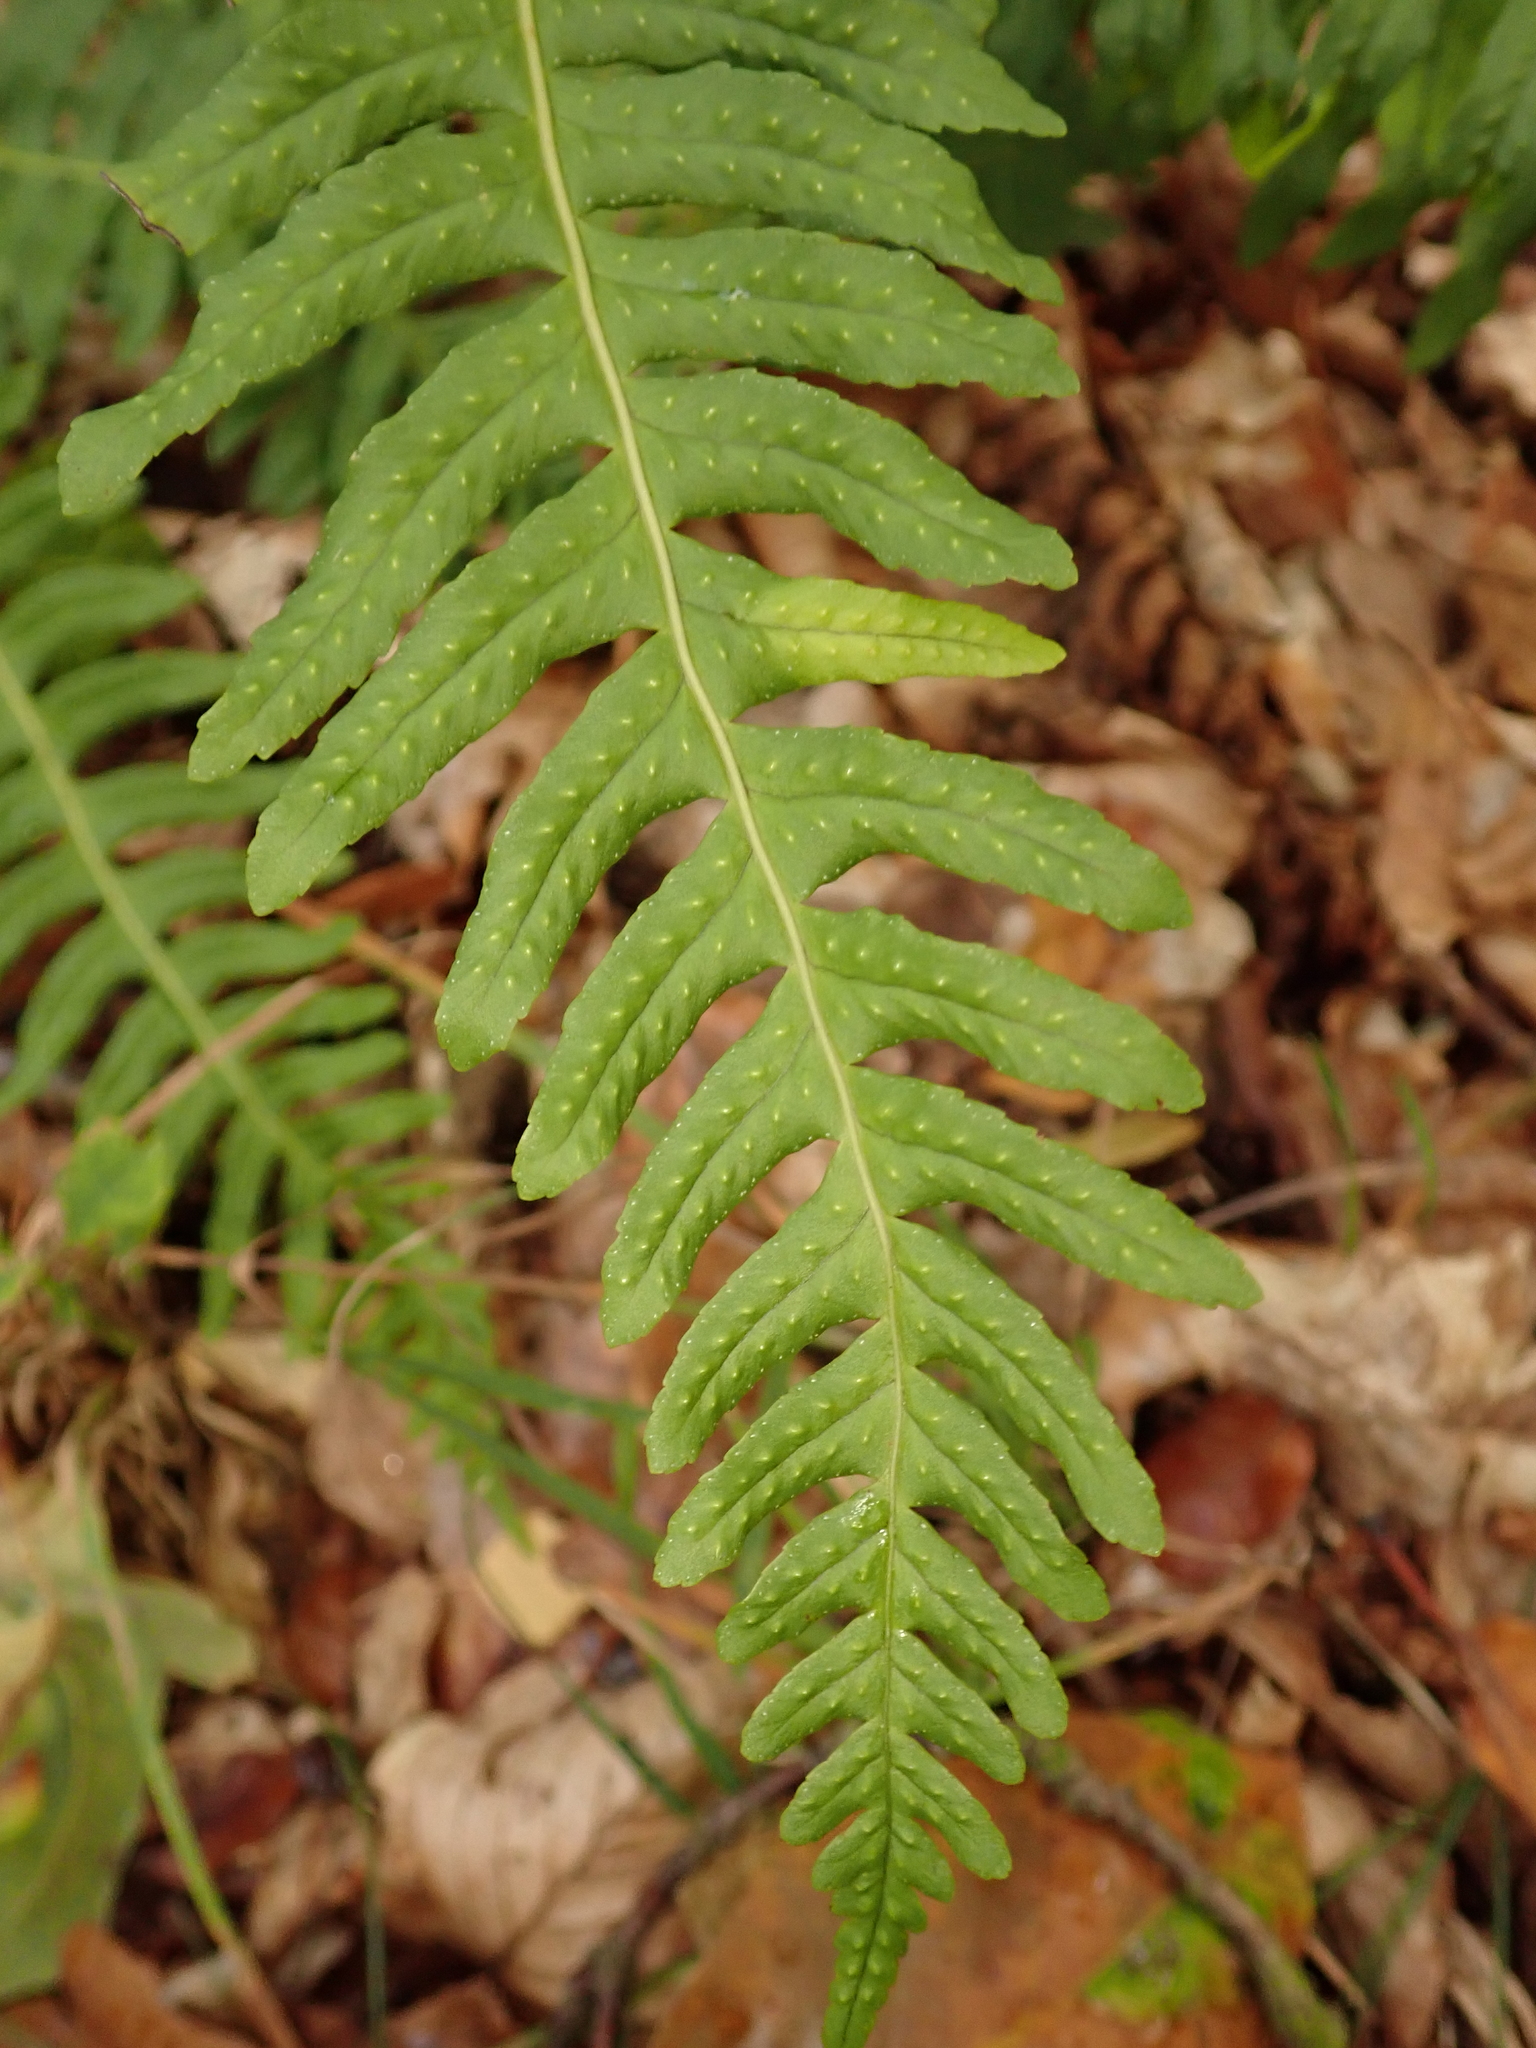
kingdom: Plantae
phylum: Tracheophyta
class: Polypodiopsida
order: Polypodiales
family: Polypodiaceae
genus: Polypodium
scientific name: Polypodium vulgare
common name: Common polypody
